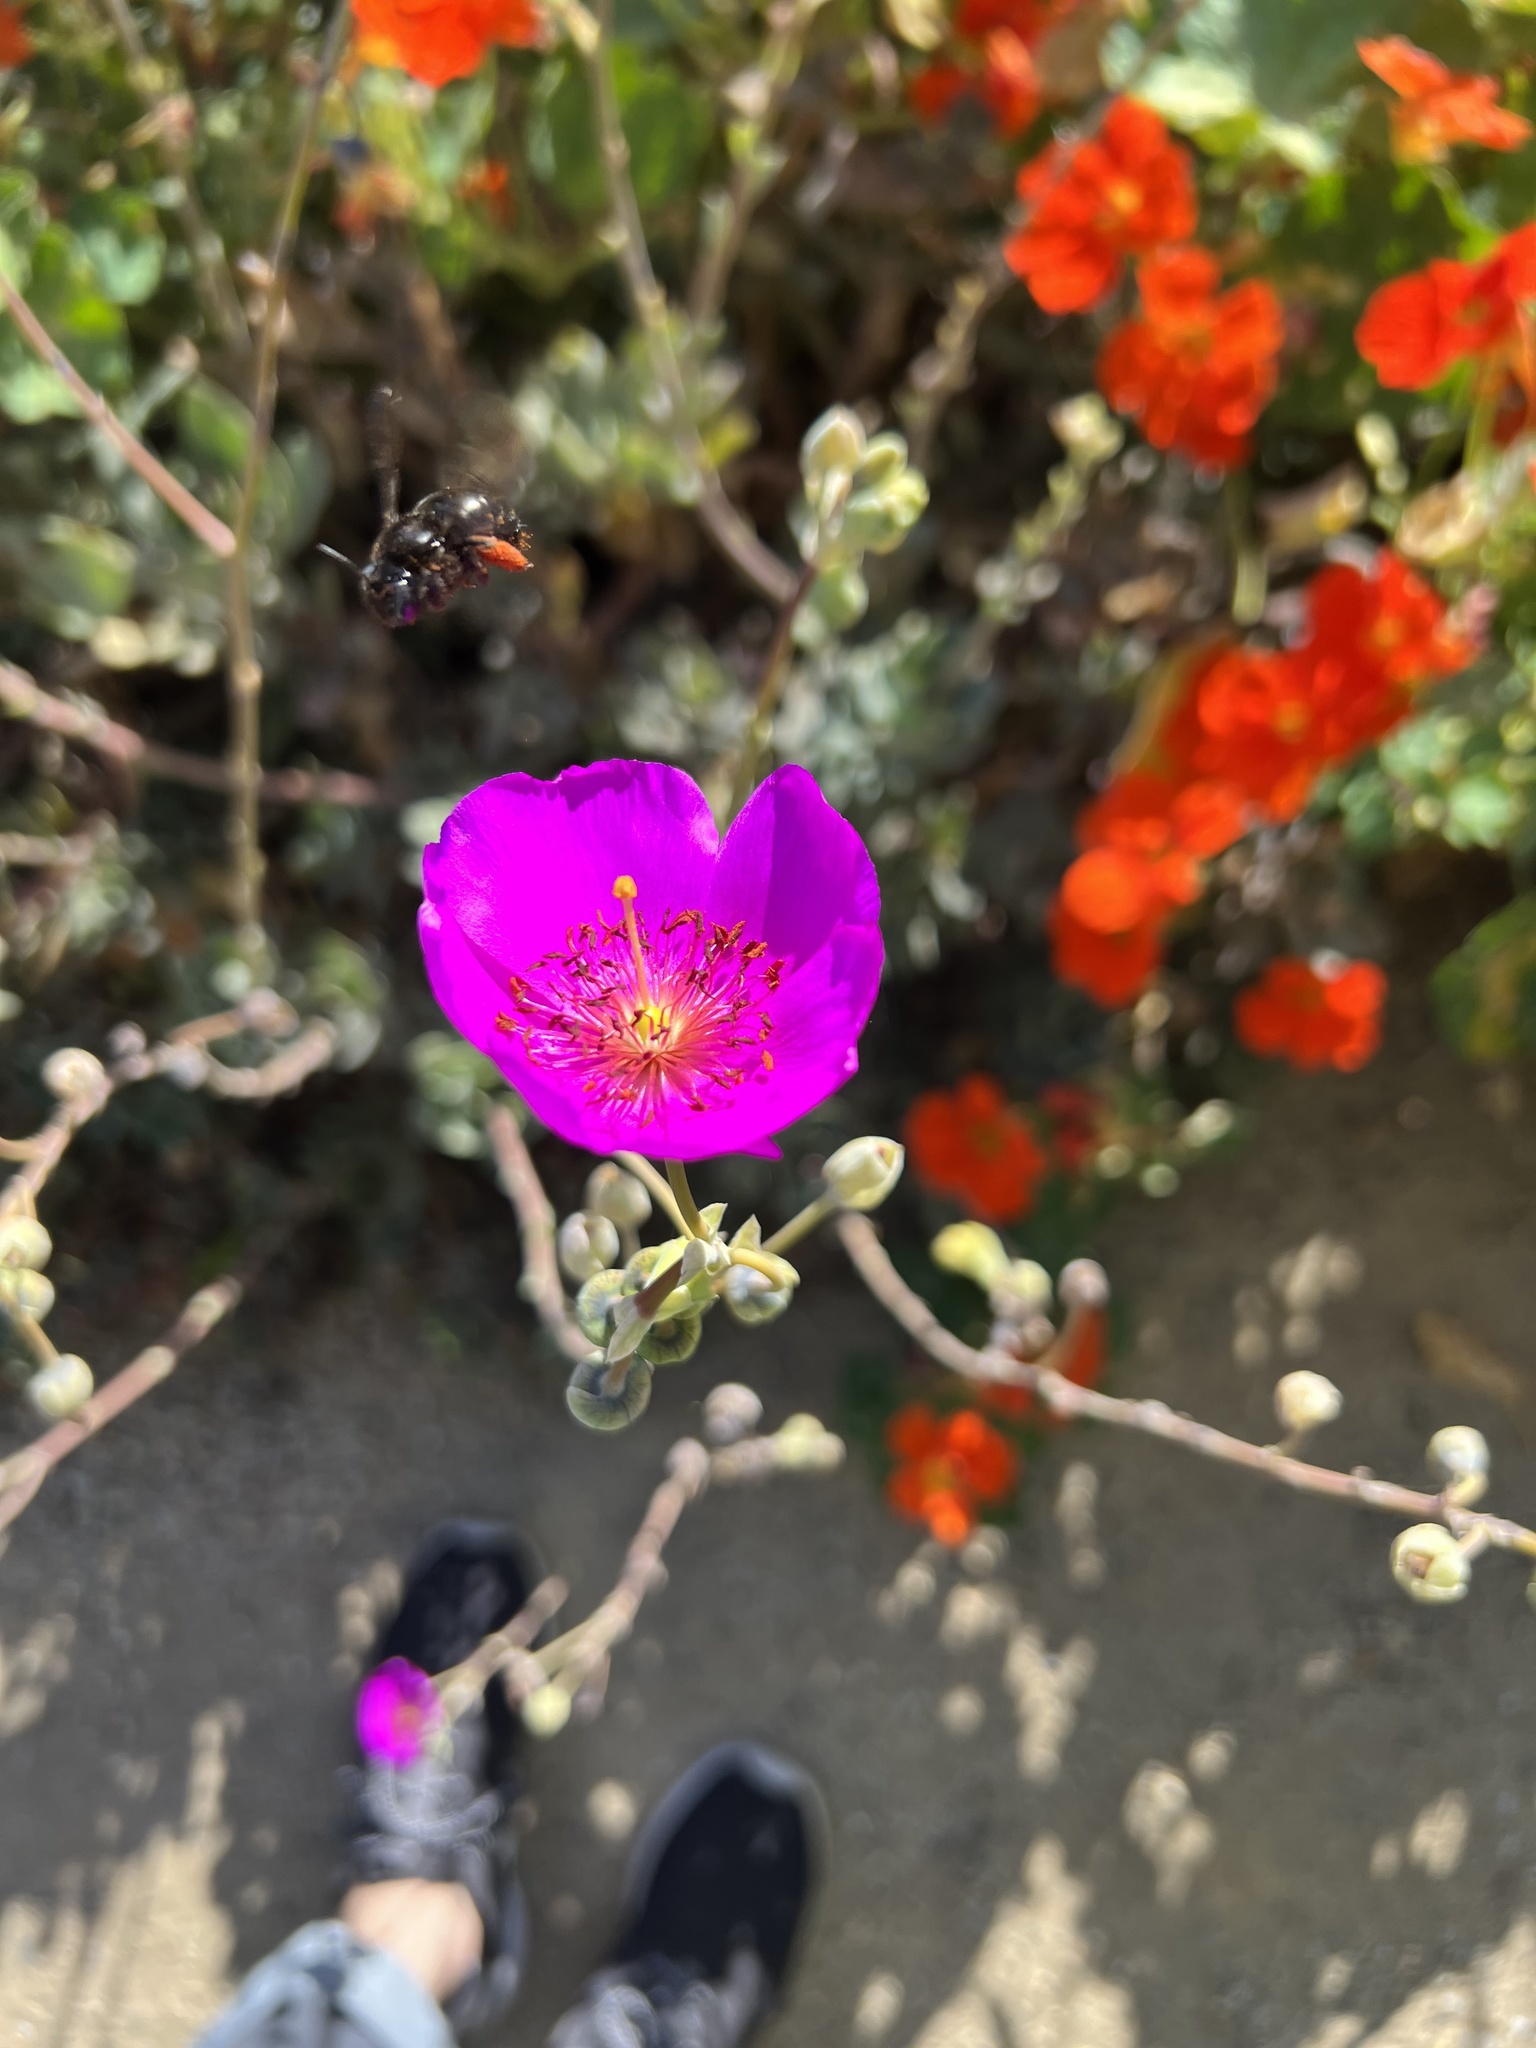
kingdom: Animalia
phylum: Arthropoda
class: Insecta
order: Hymenoptera
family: Apidae
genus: Xylocopa
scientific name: Xylocopa tabaniformis
